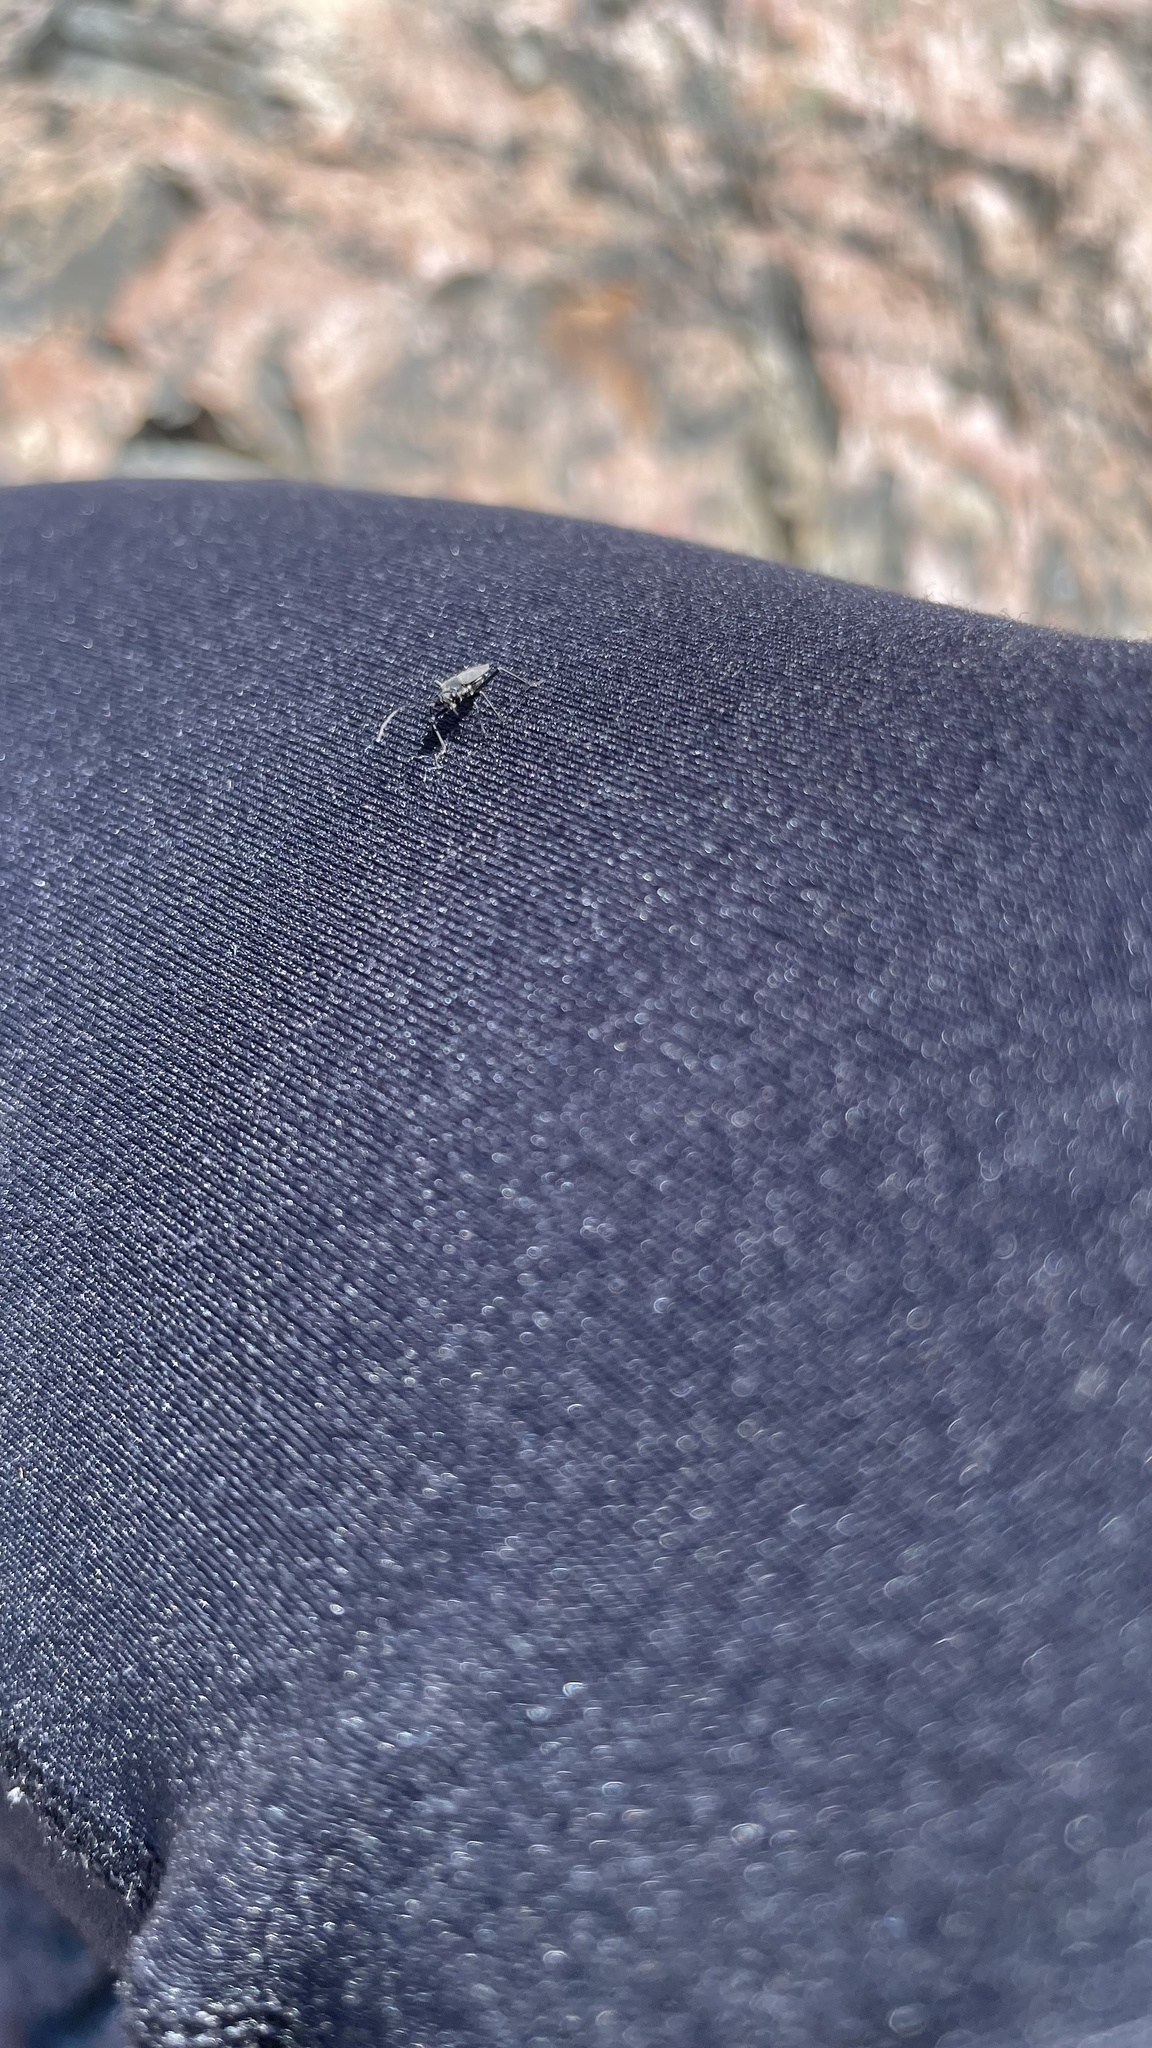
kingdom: Animalia
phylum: Arthropoda
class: Insecta
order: Hemiptera
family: Miridae
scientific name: Miridae
